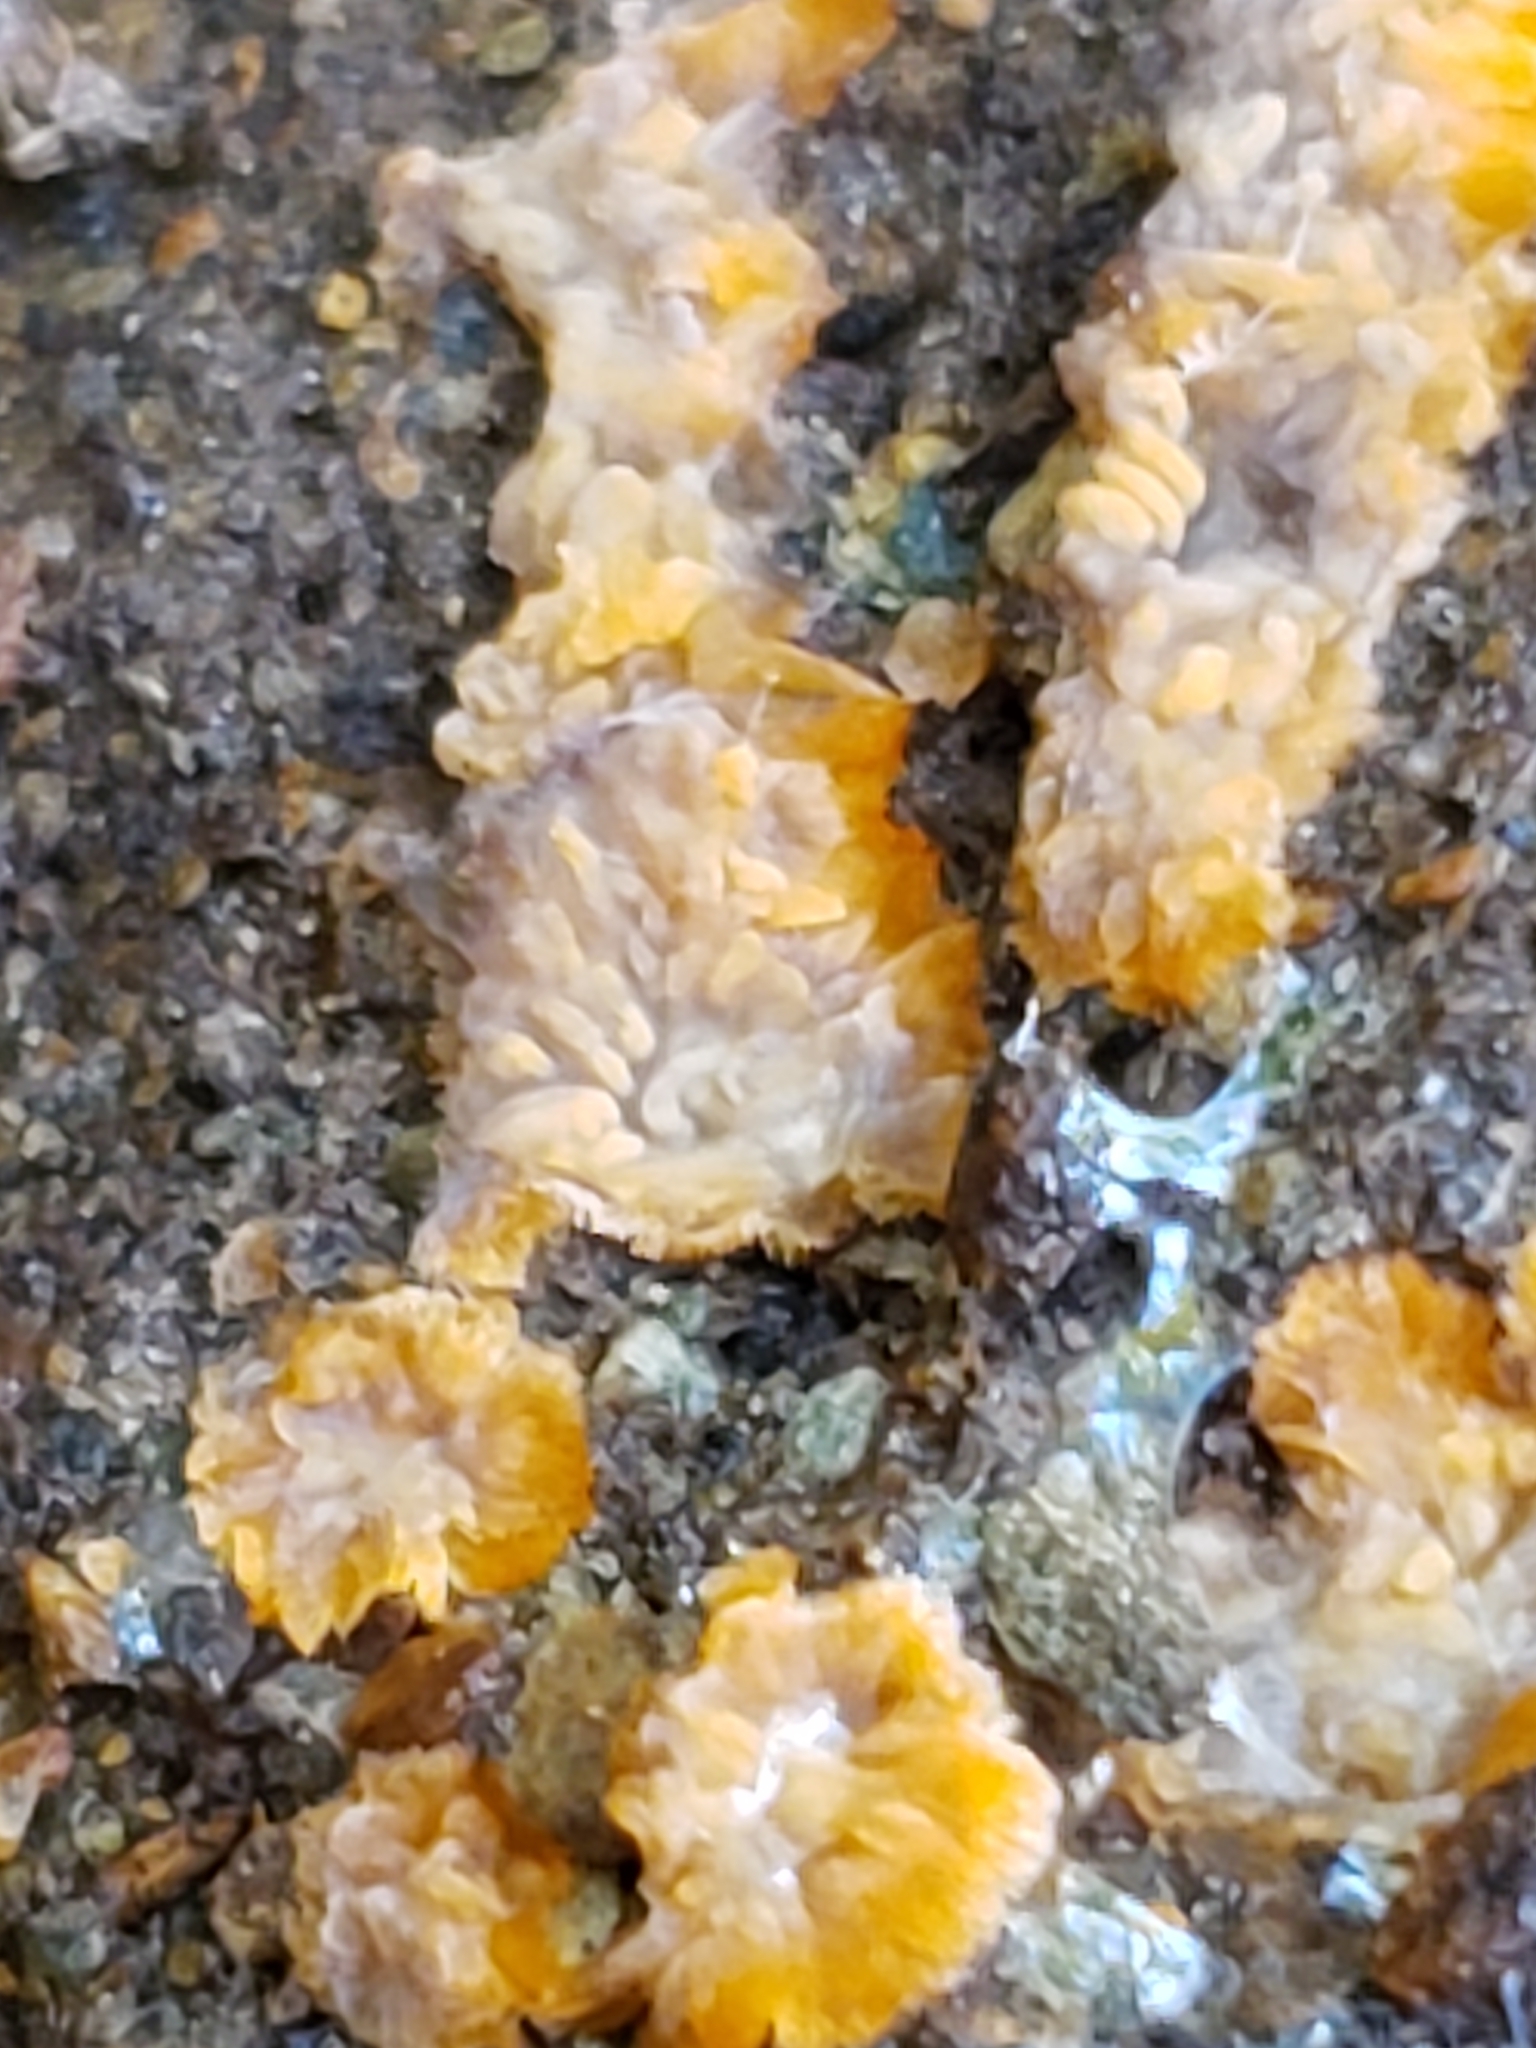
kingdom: Fungi
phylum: Basidiomycota
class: Agaricomycetes
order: Polyporales
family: Meruliaceae
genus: Phlebia
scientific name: Phlebia radiata
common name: Wrinkled crust
